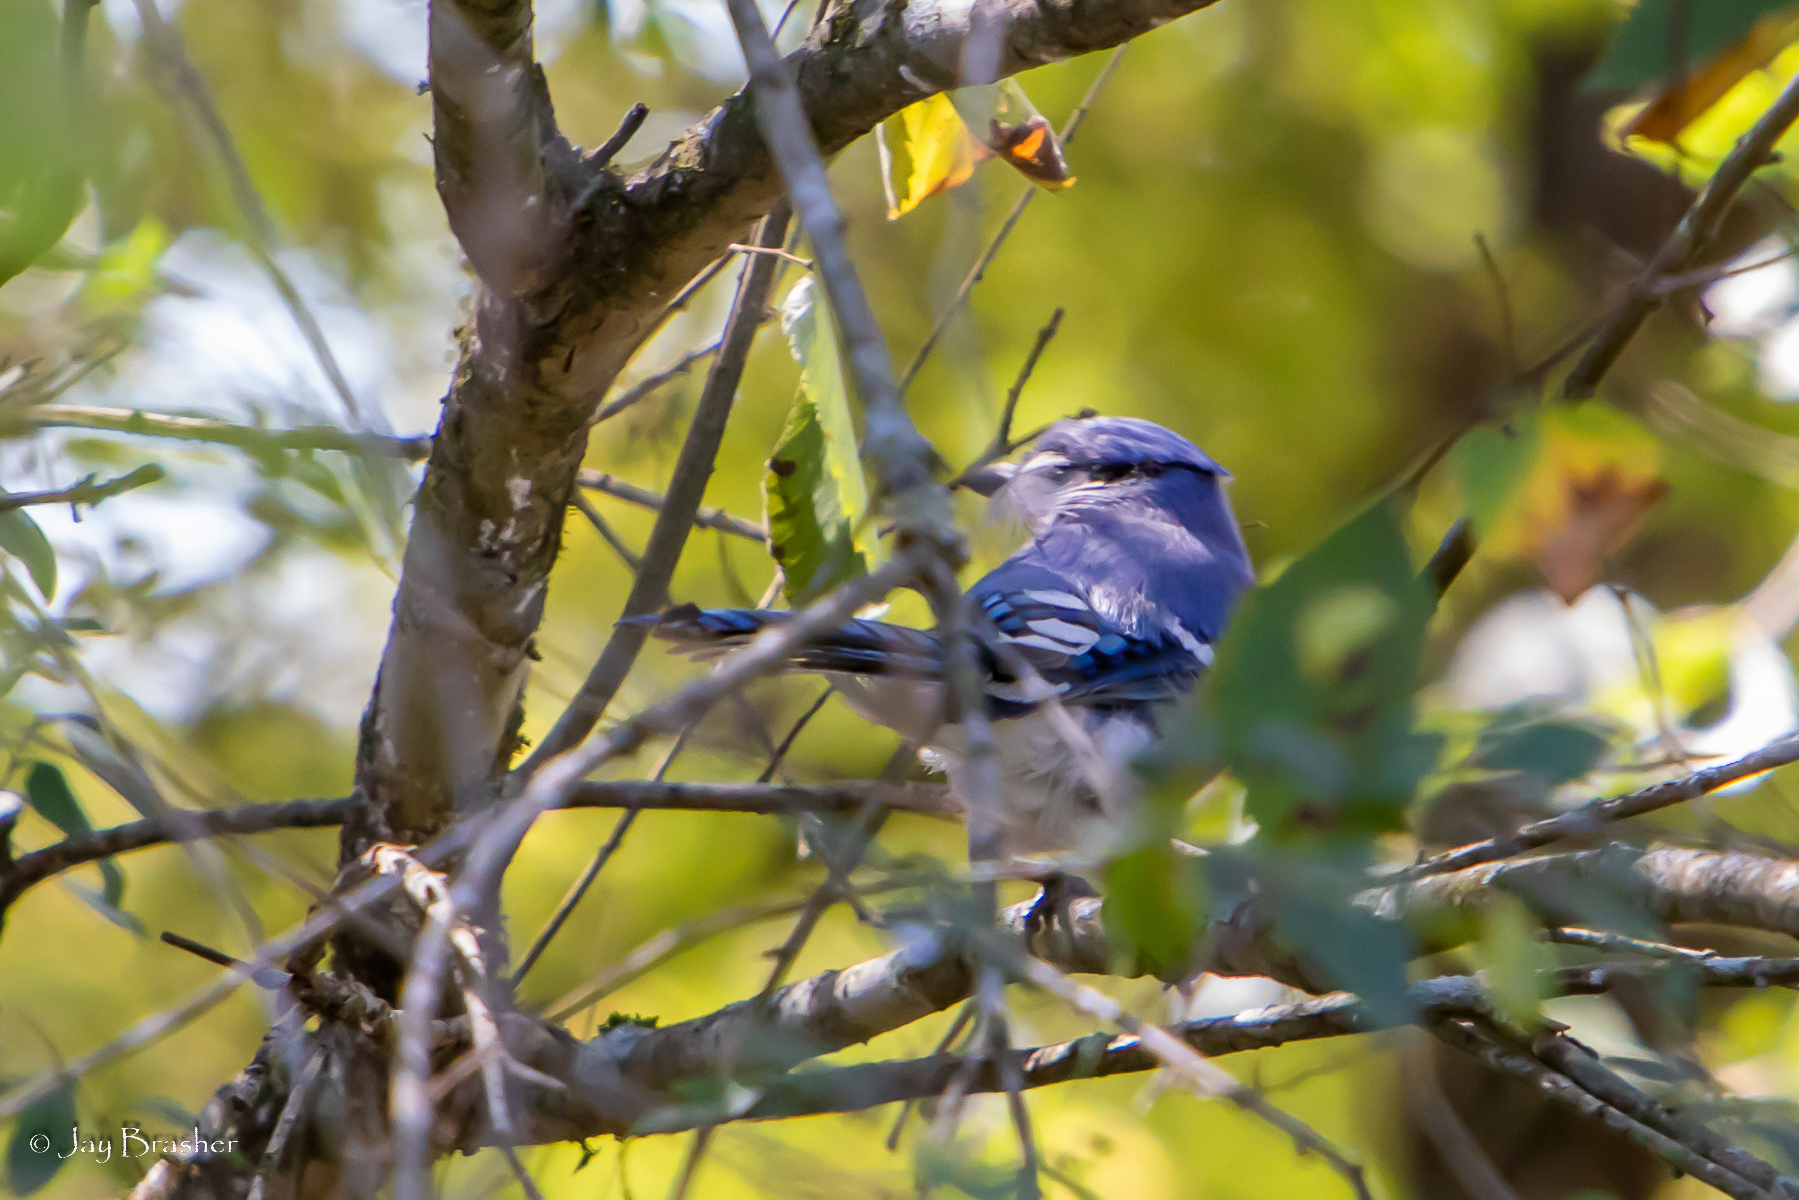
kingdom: Animalia
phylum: Chordata
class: Aves
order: Passeriformes
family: Corvidae
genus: Cyanocitta
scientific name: Cyanocitta cristata
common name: Blue jay
